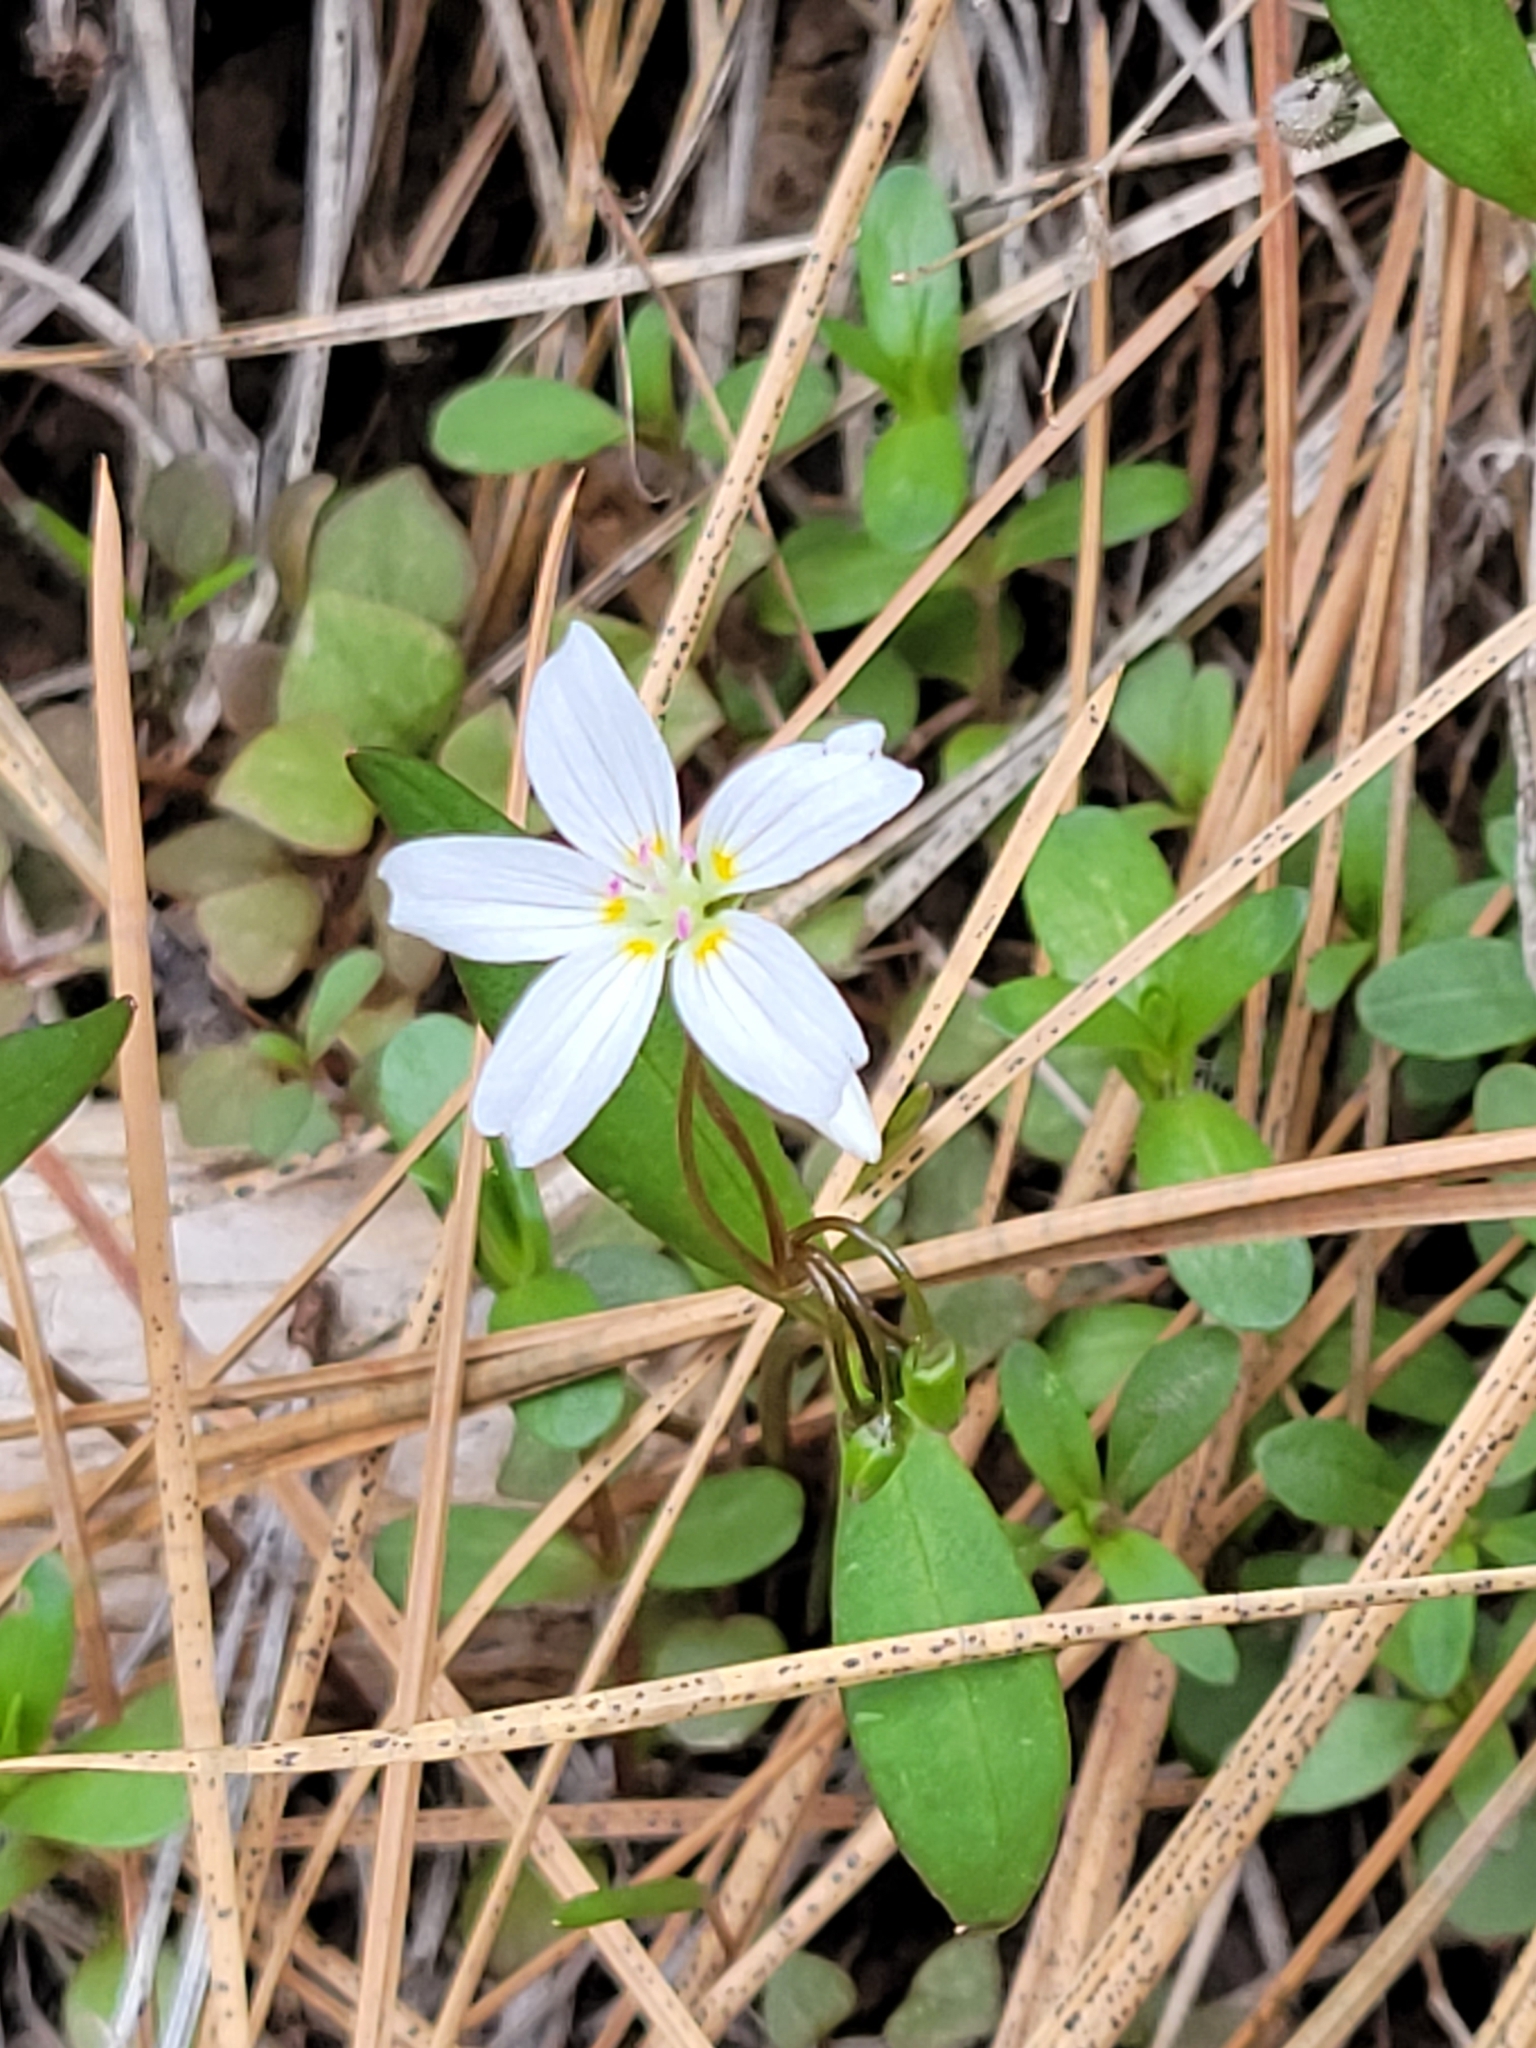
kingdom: Plantae
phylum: Tracheophyta
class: Magnoliopsida
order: Caryophyllales
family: Montiaceae
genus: Claytonia
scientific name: Claytonia lanceolata
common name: Western spring-beauty
